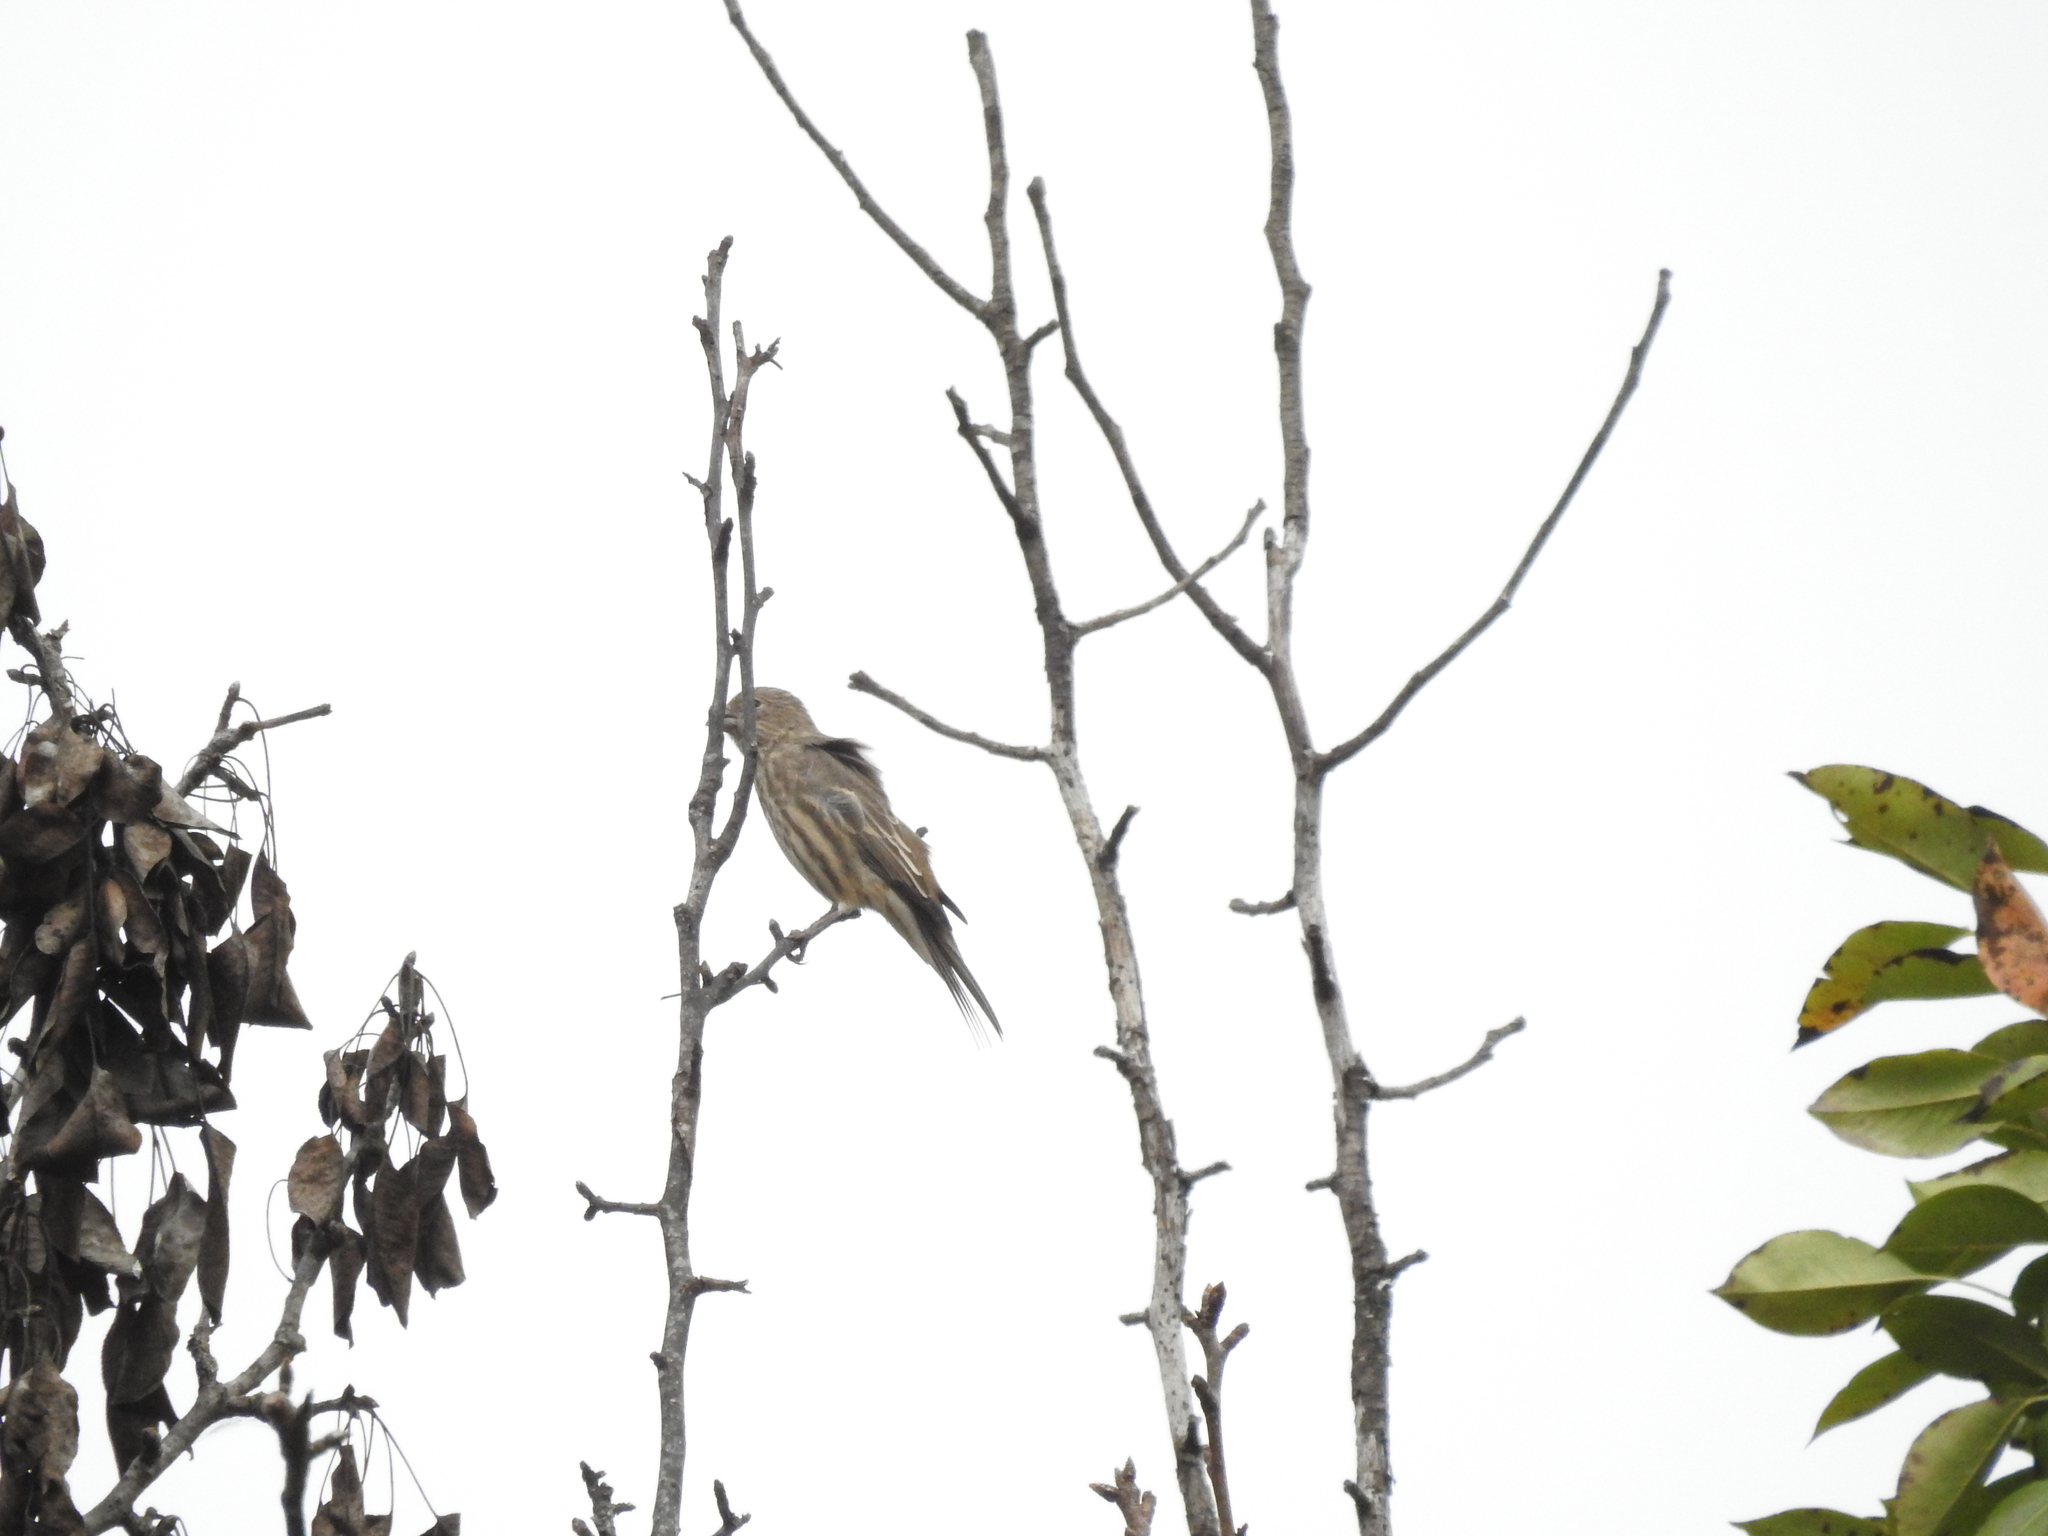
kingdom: Animalia
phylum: Chordata
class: Aves
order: Passeriformes
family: Fringillidae
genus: Haemorhous
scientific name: Haemorhous mexicanus
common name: House finch
